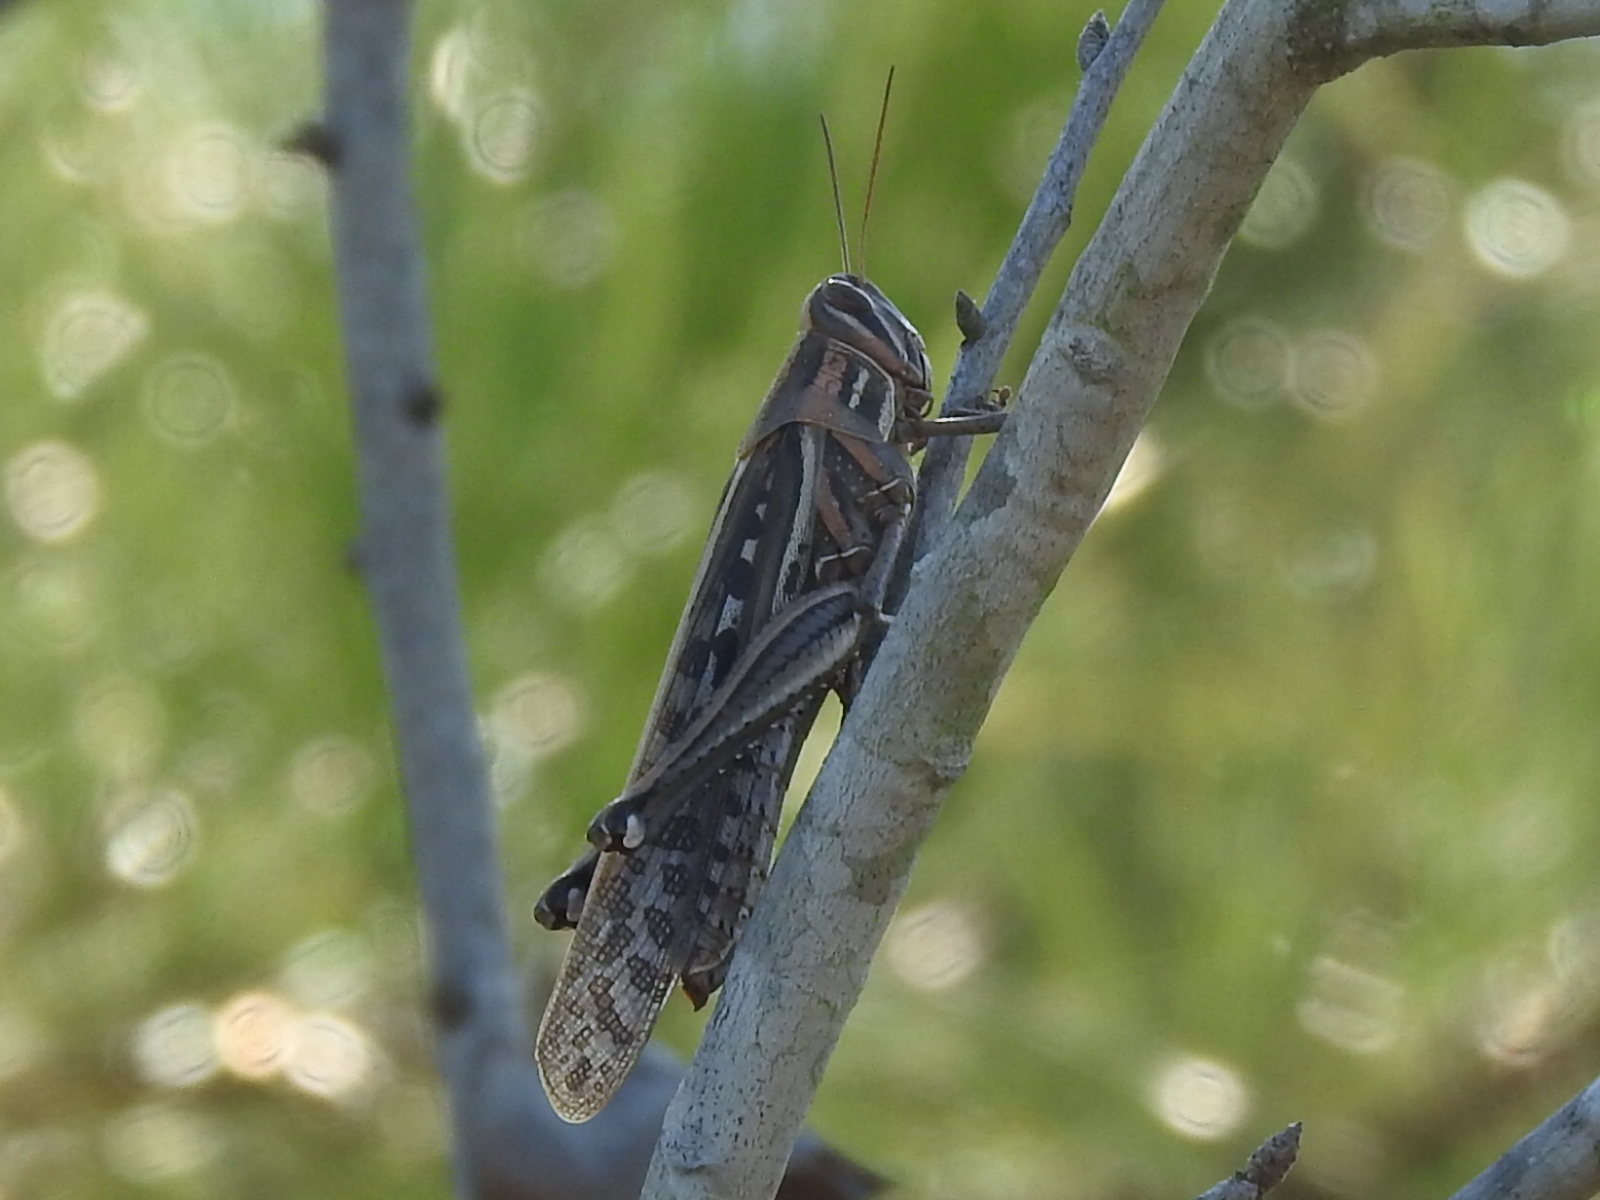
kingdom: Animalia
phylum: Arthropoda
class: Insecta
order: Orthoptera
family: Acrididae
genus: Schistocerca
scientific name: Schistocerca americana
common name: American bird locust
